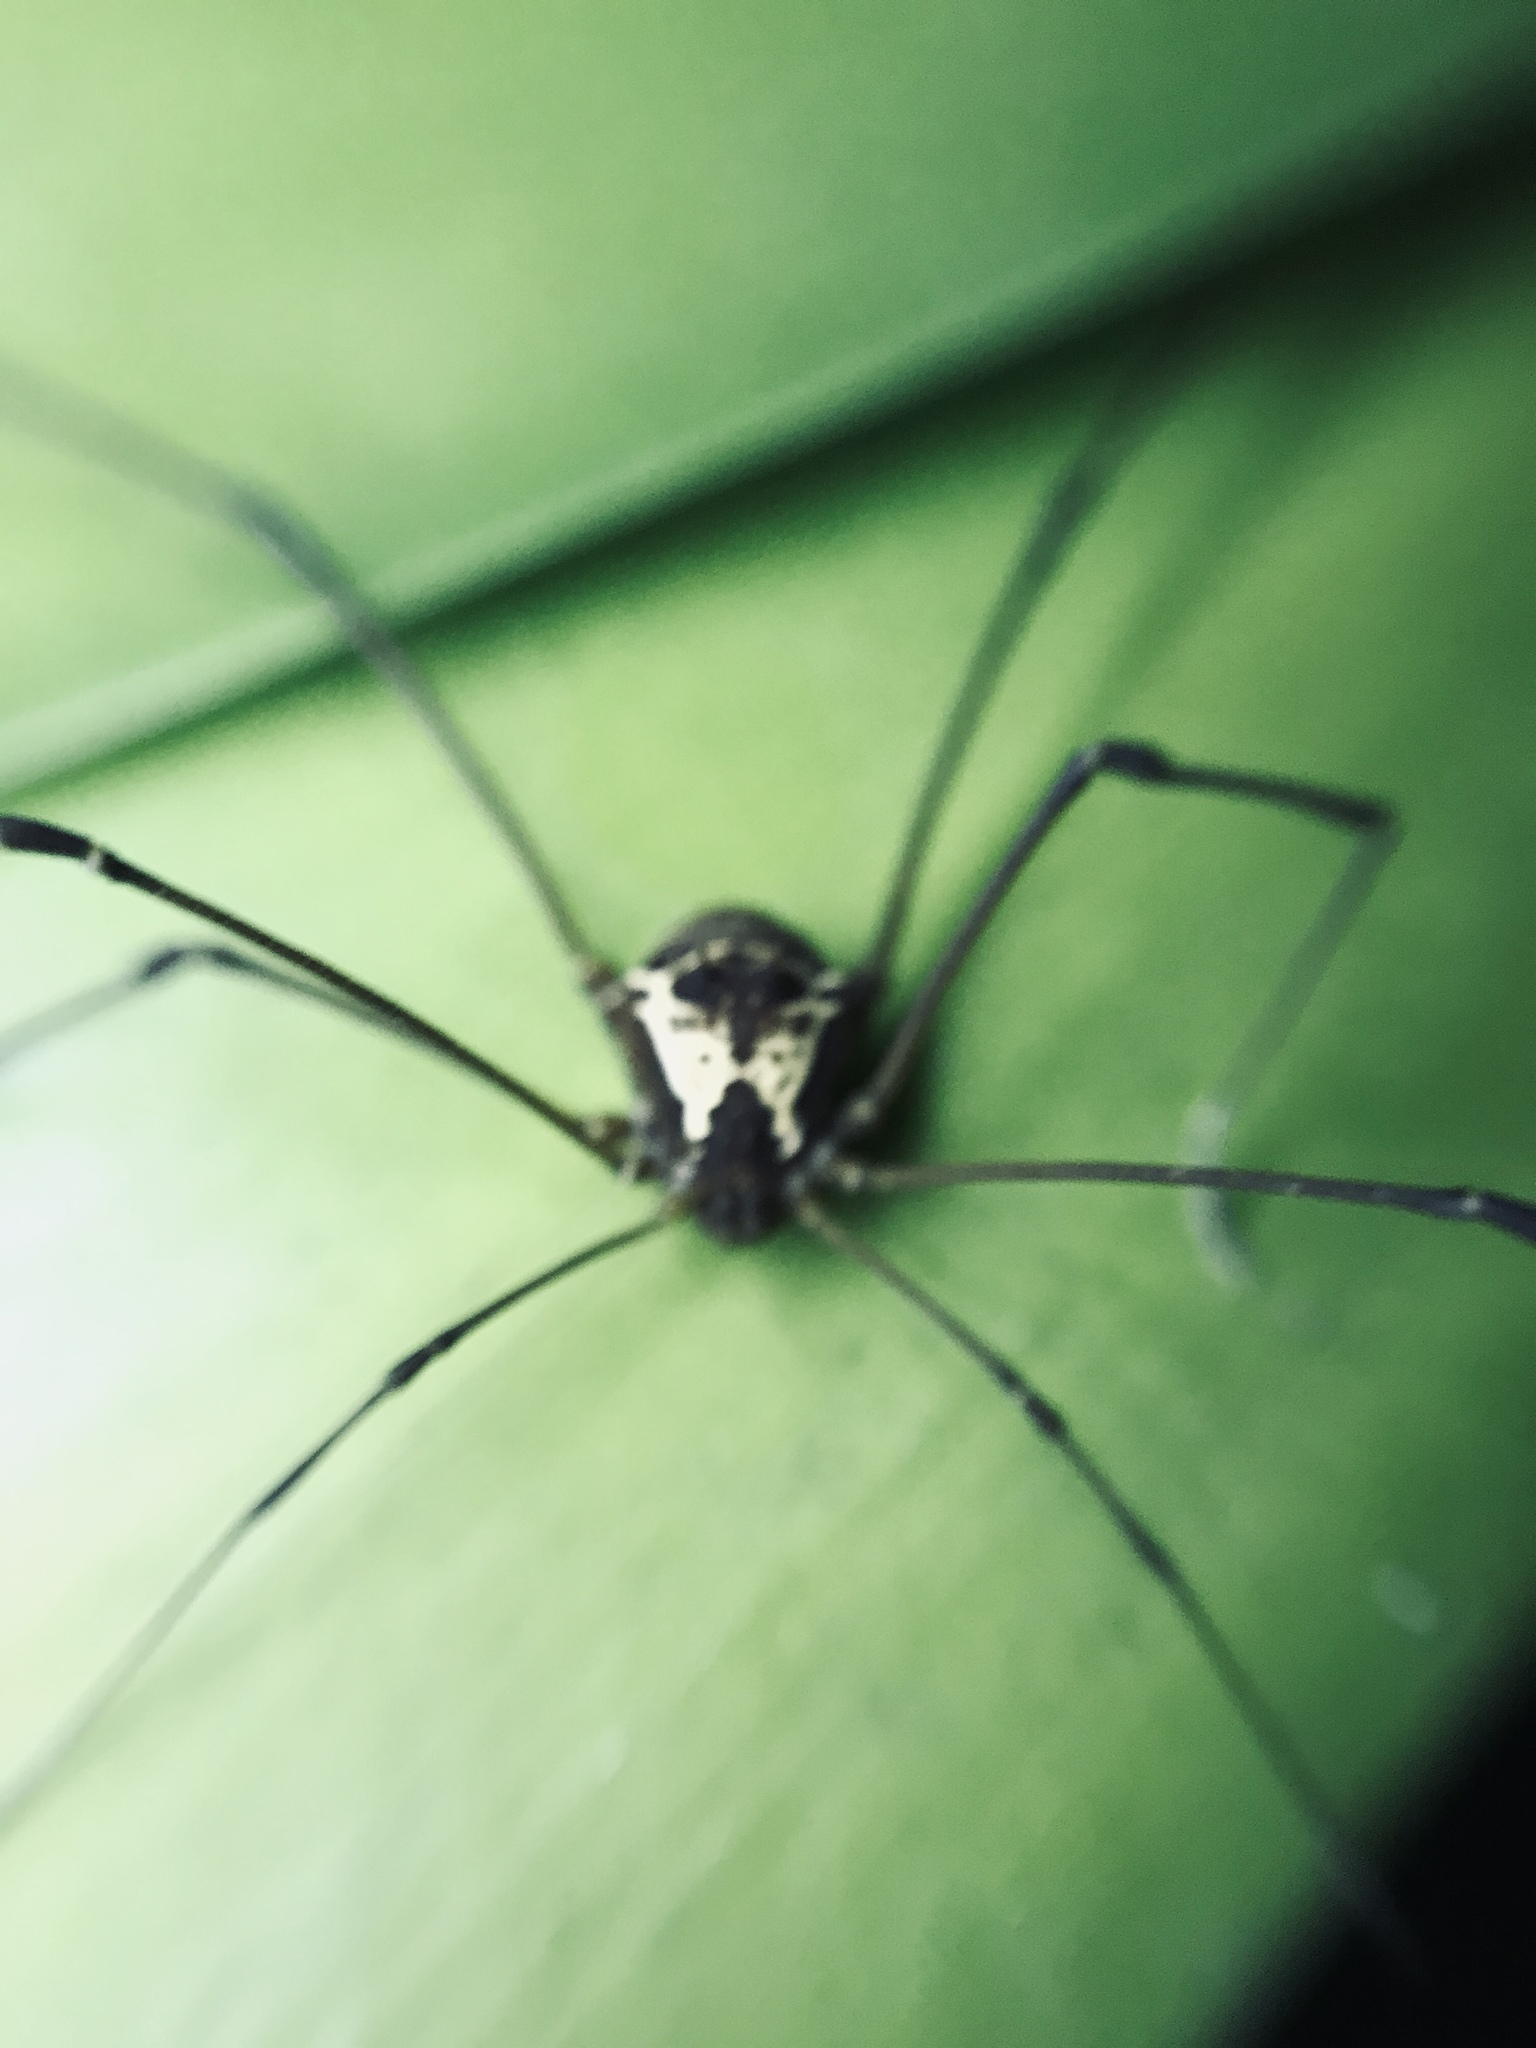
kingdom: Animalia
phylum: Arthropoda
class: Arachnida
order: Opiliones
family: Cosmetidae
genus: Cynortellana
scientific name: Cynortellana pulchra
